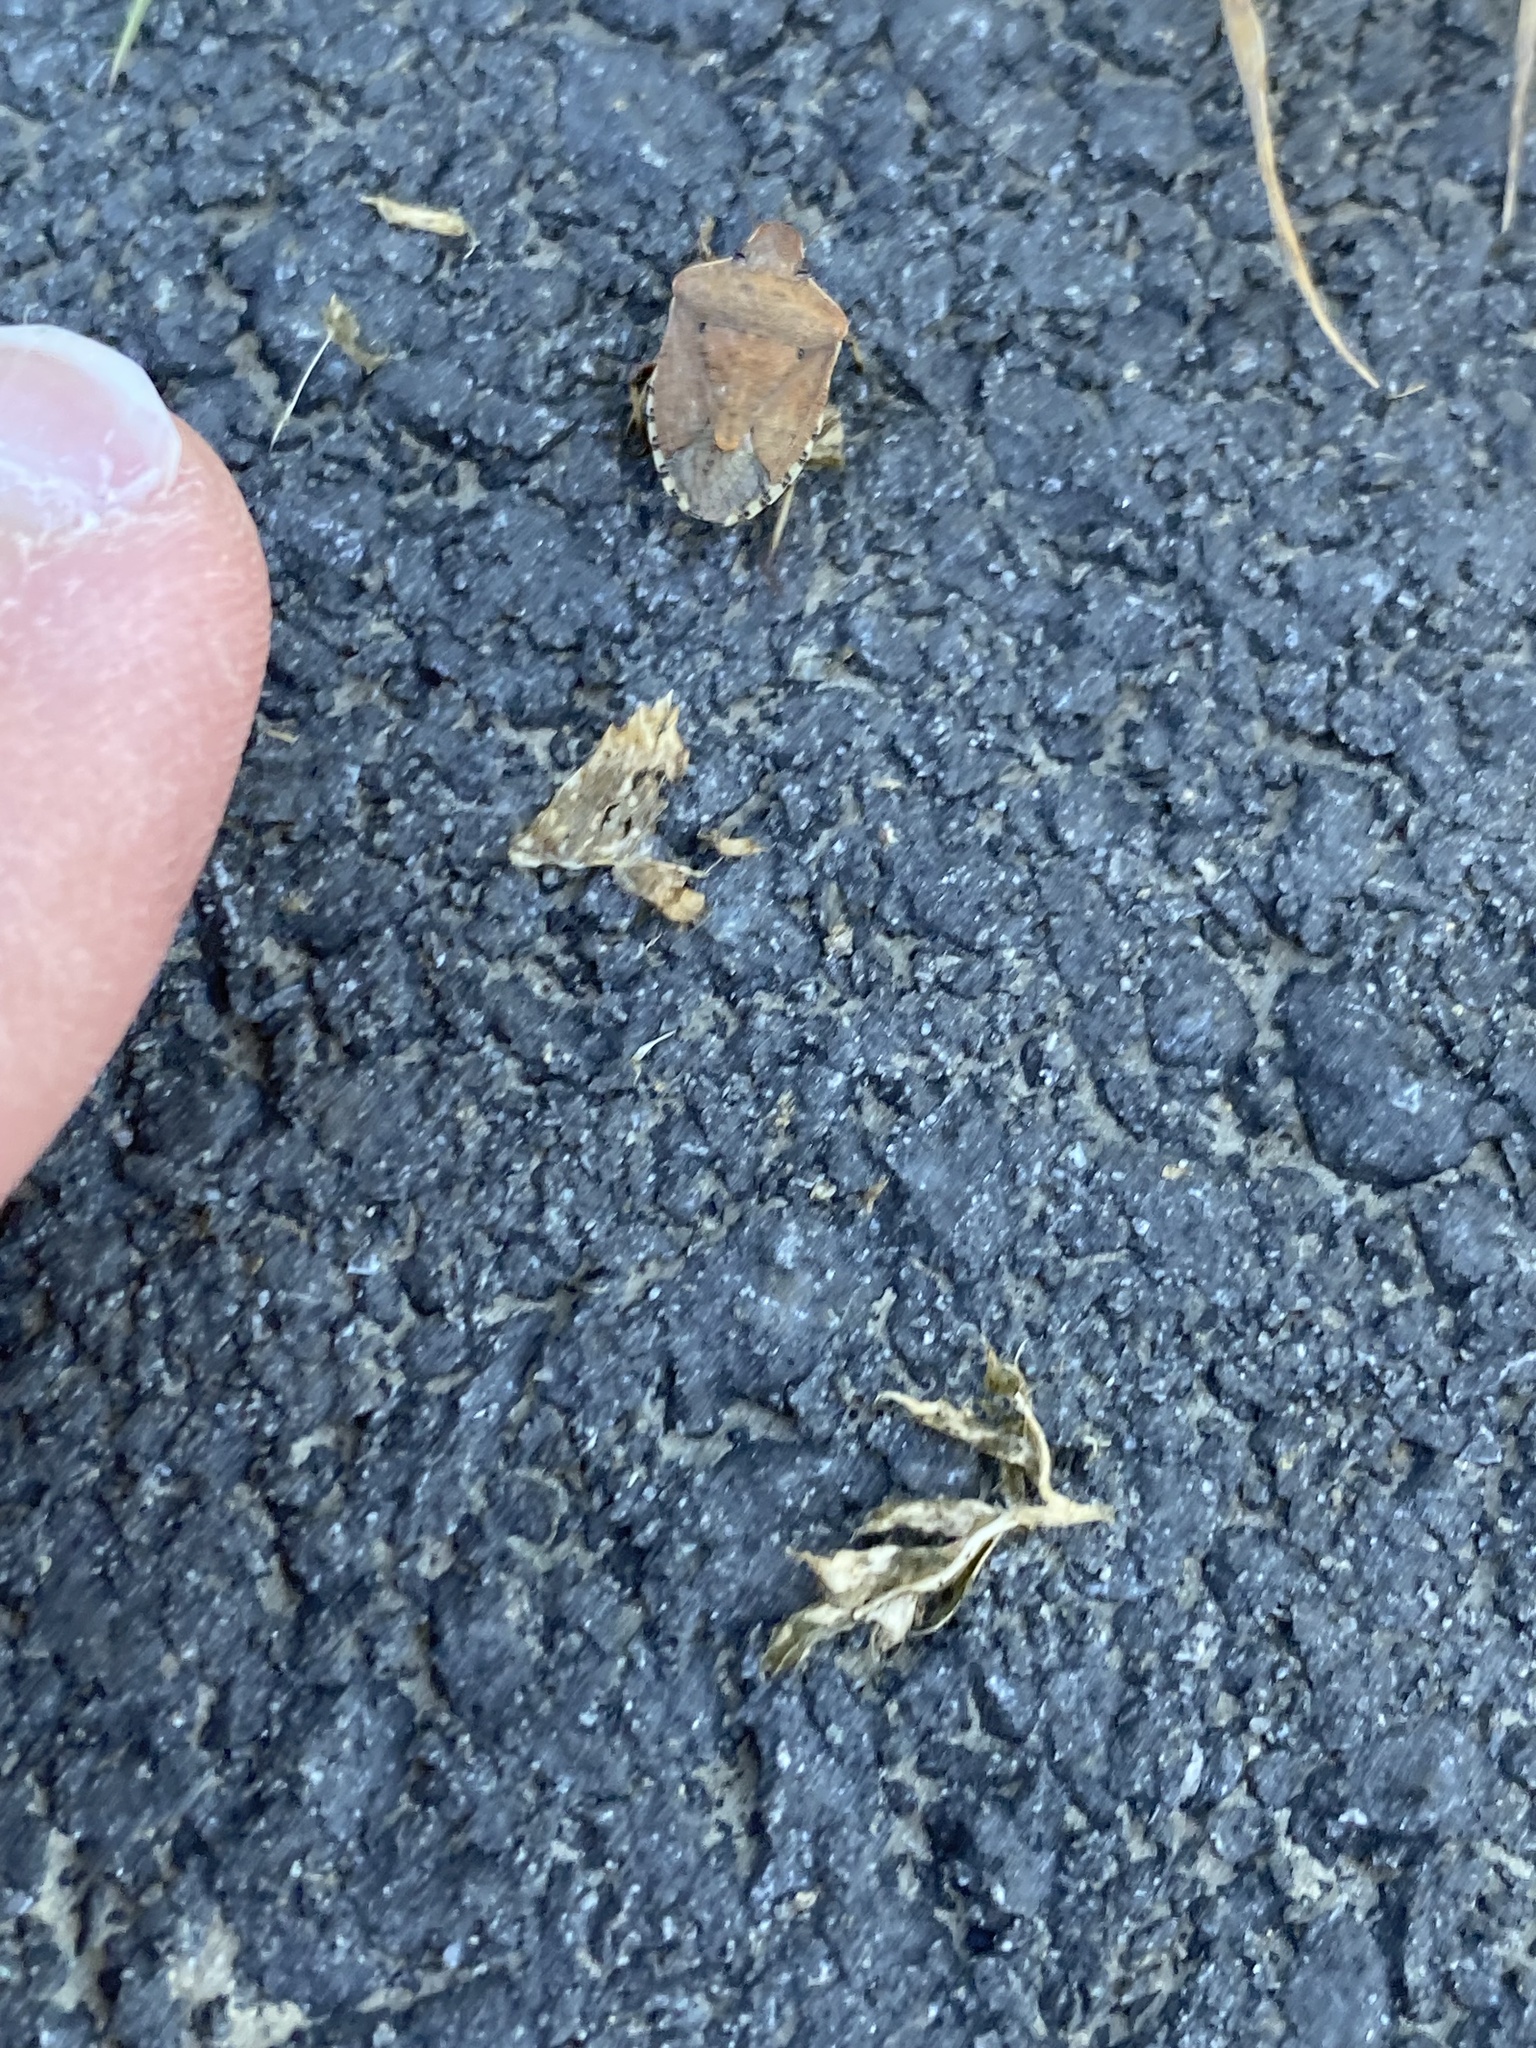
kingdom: Animalia
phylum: Arthropoda
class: Insecta
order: Hemiptera
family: Pentatomidae
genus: Dictyotus
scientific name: Dictyotus caenosus
